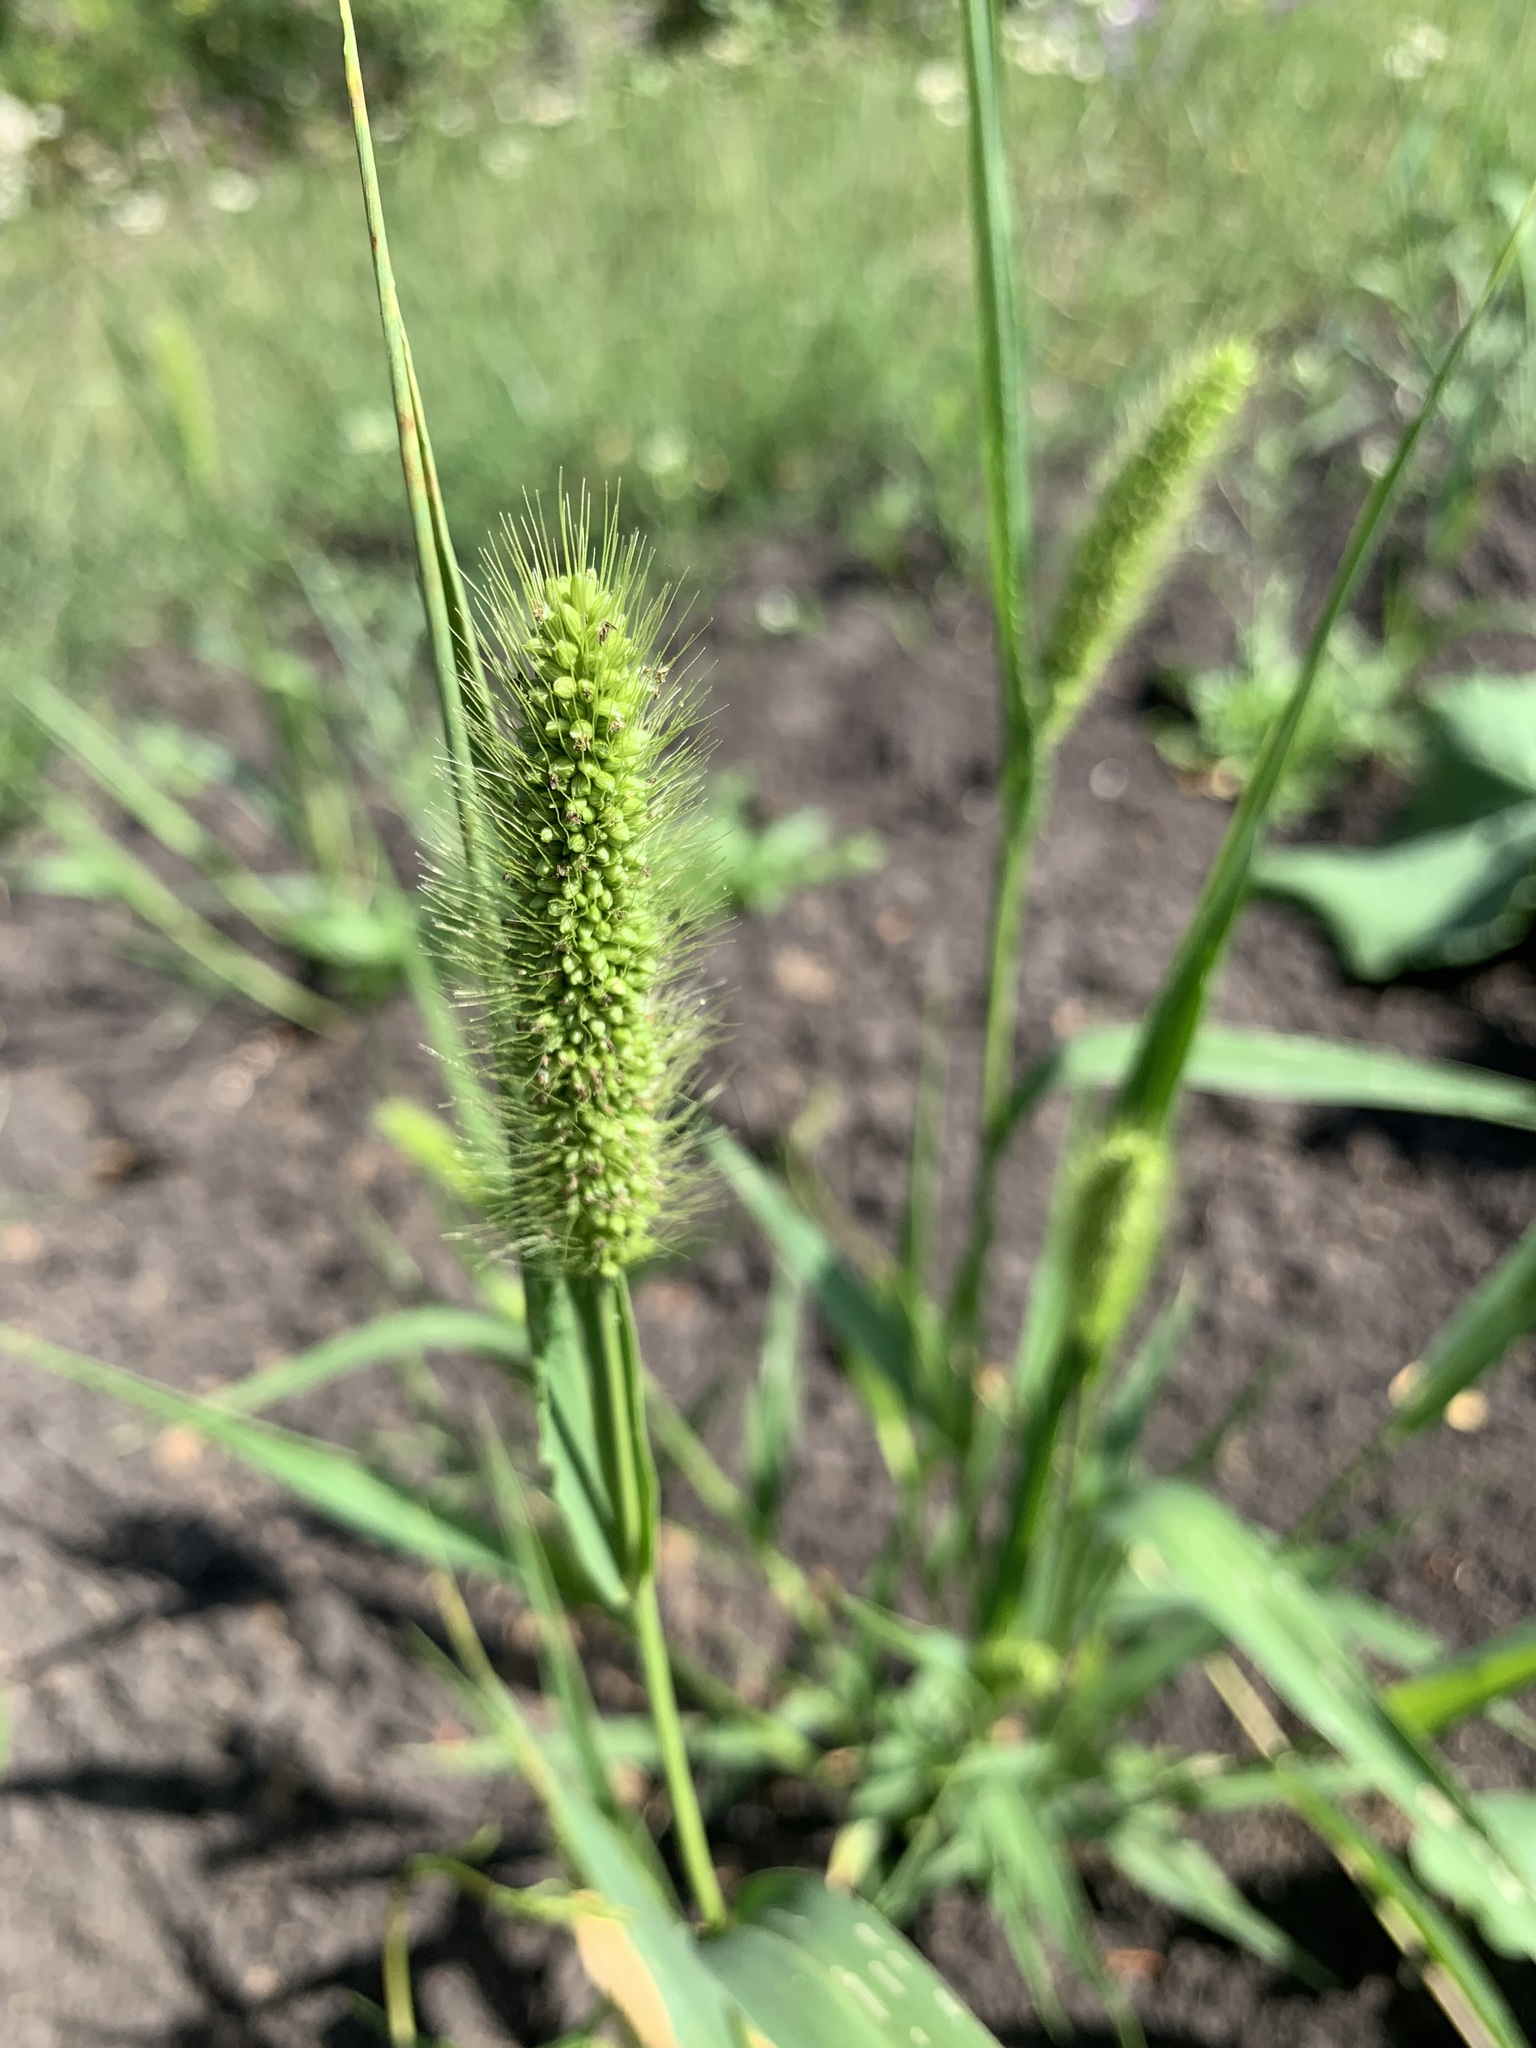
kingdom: Plantae
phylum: Tracheophyta
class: Liliopsida
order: Poales
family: Poaceae
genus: Setaria
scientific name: Setaria viridis
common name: Green bristlegrass
